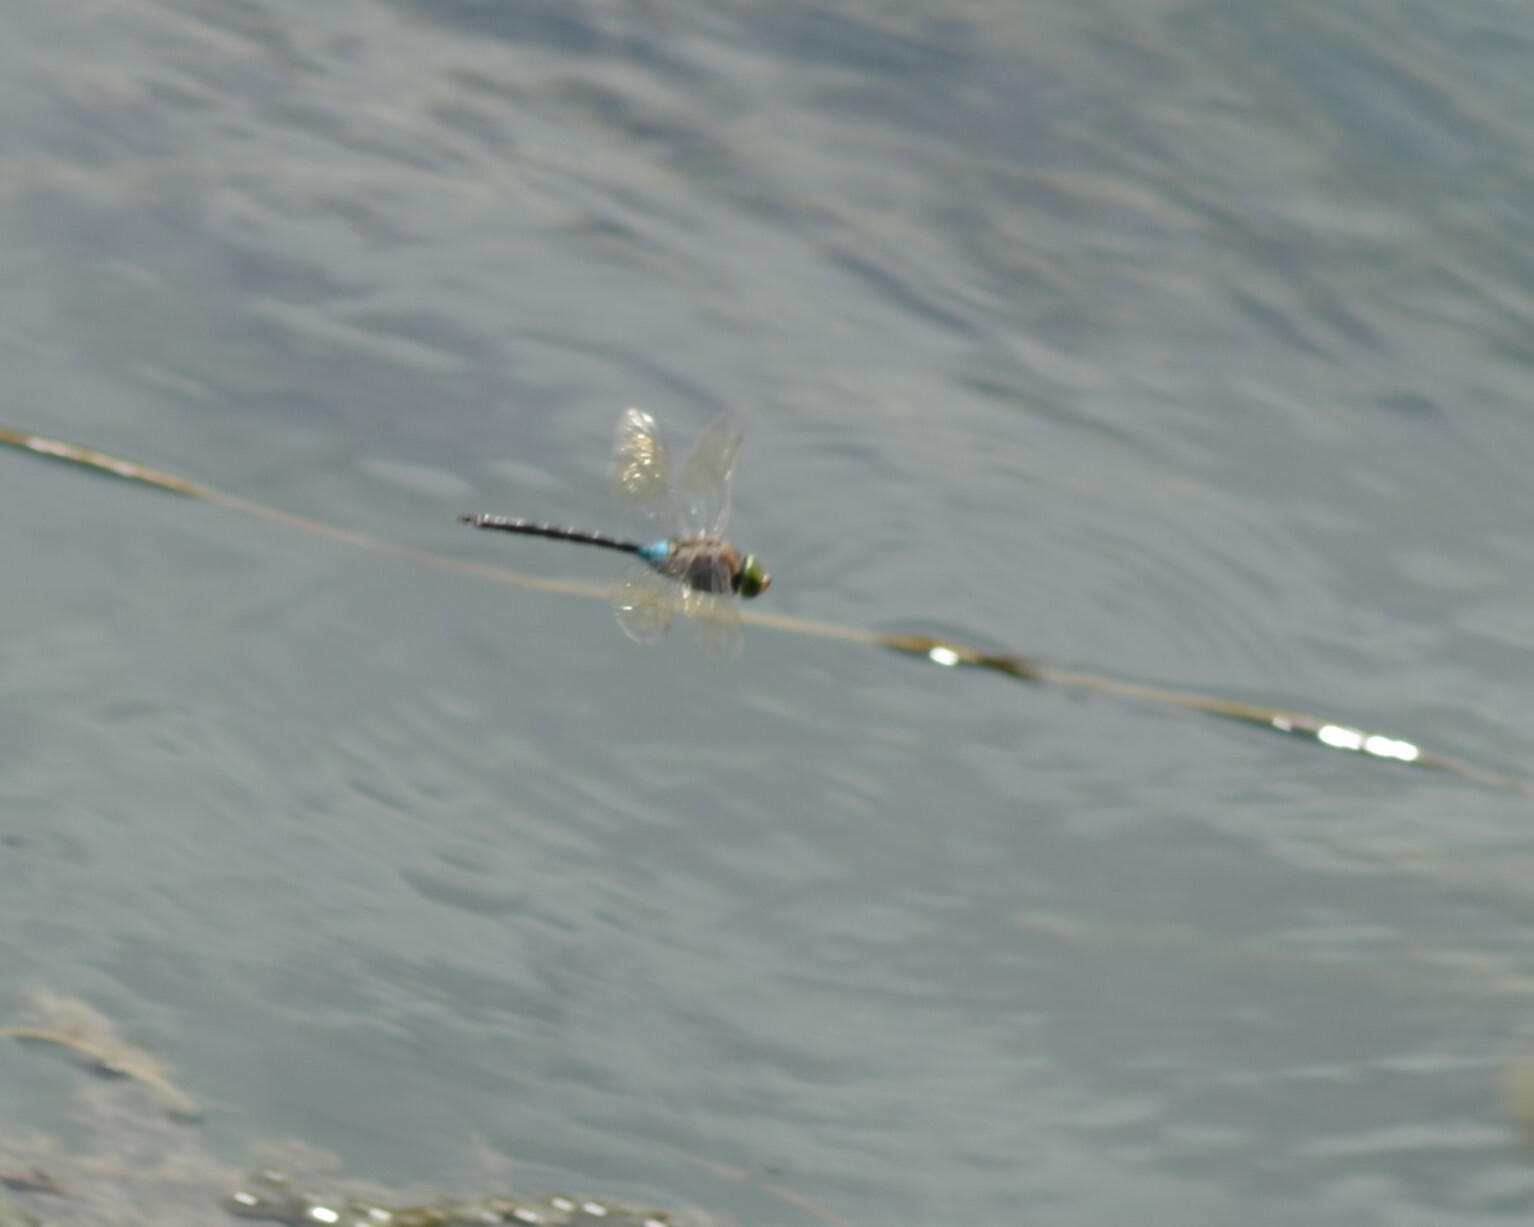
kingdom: Animalia
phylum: Arthropoda
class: Insecta
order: Odonata
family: Aeshnidae
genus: Anax
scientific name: Anax parthenope
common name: Lesser emperor
